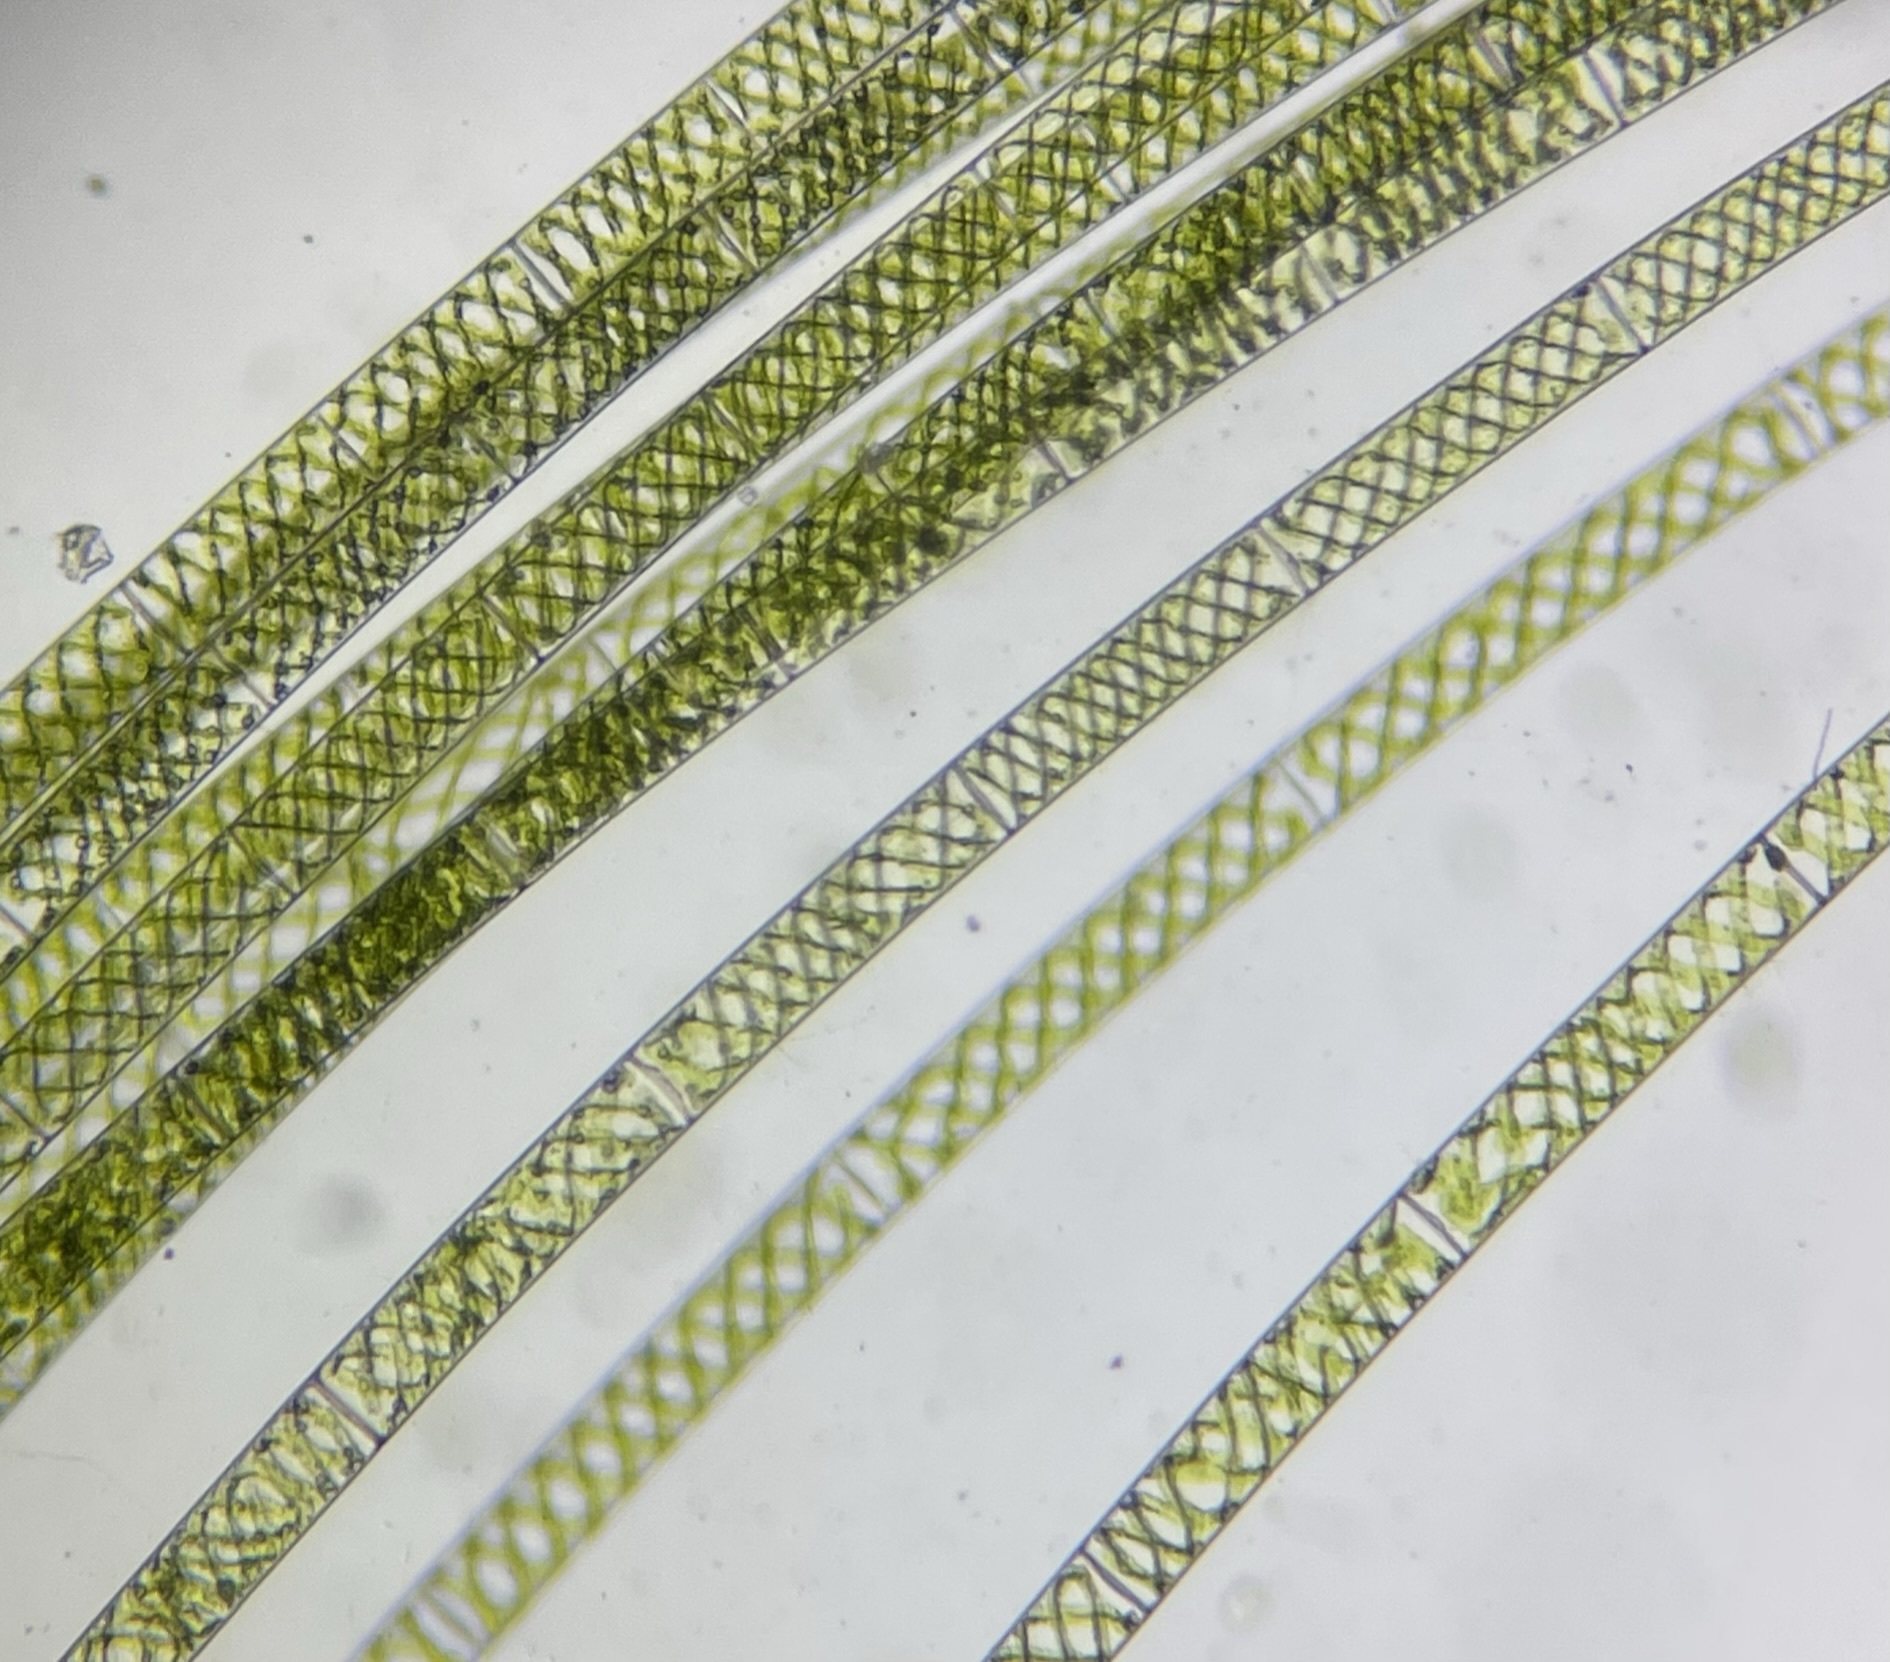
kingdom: Plantae
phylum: Charophyta
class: Zygnematophyceae
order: Zygnematales
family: Zygnemataceae
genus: Spirogyra
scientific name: Spirogyra
